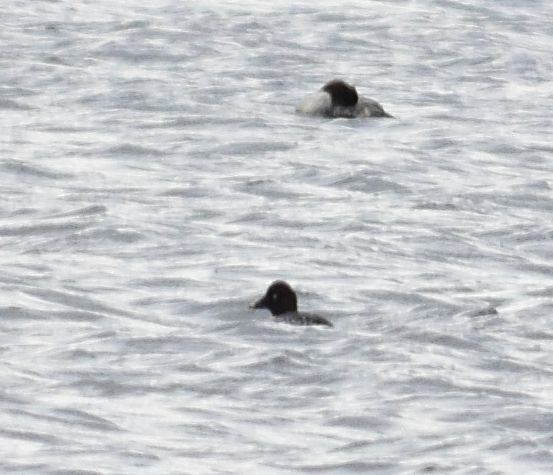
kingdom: Animalia
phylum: Chordata
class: Aves
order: Anseriformes
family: Anatidae
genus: Bucephala
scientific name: Bucephala clangula
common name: Common goldeneye
